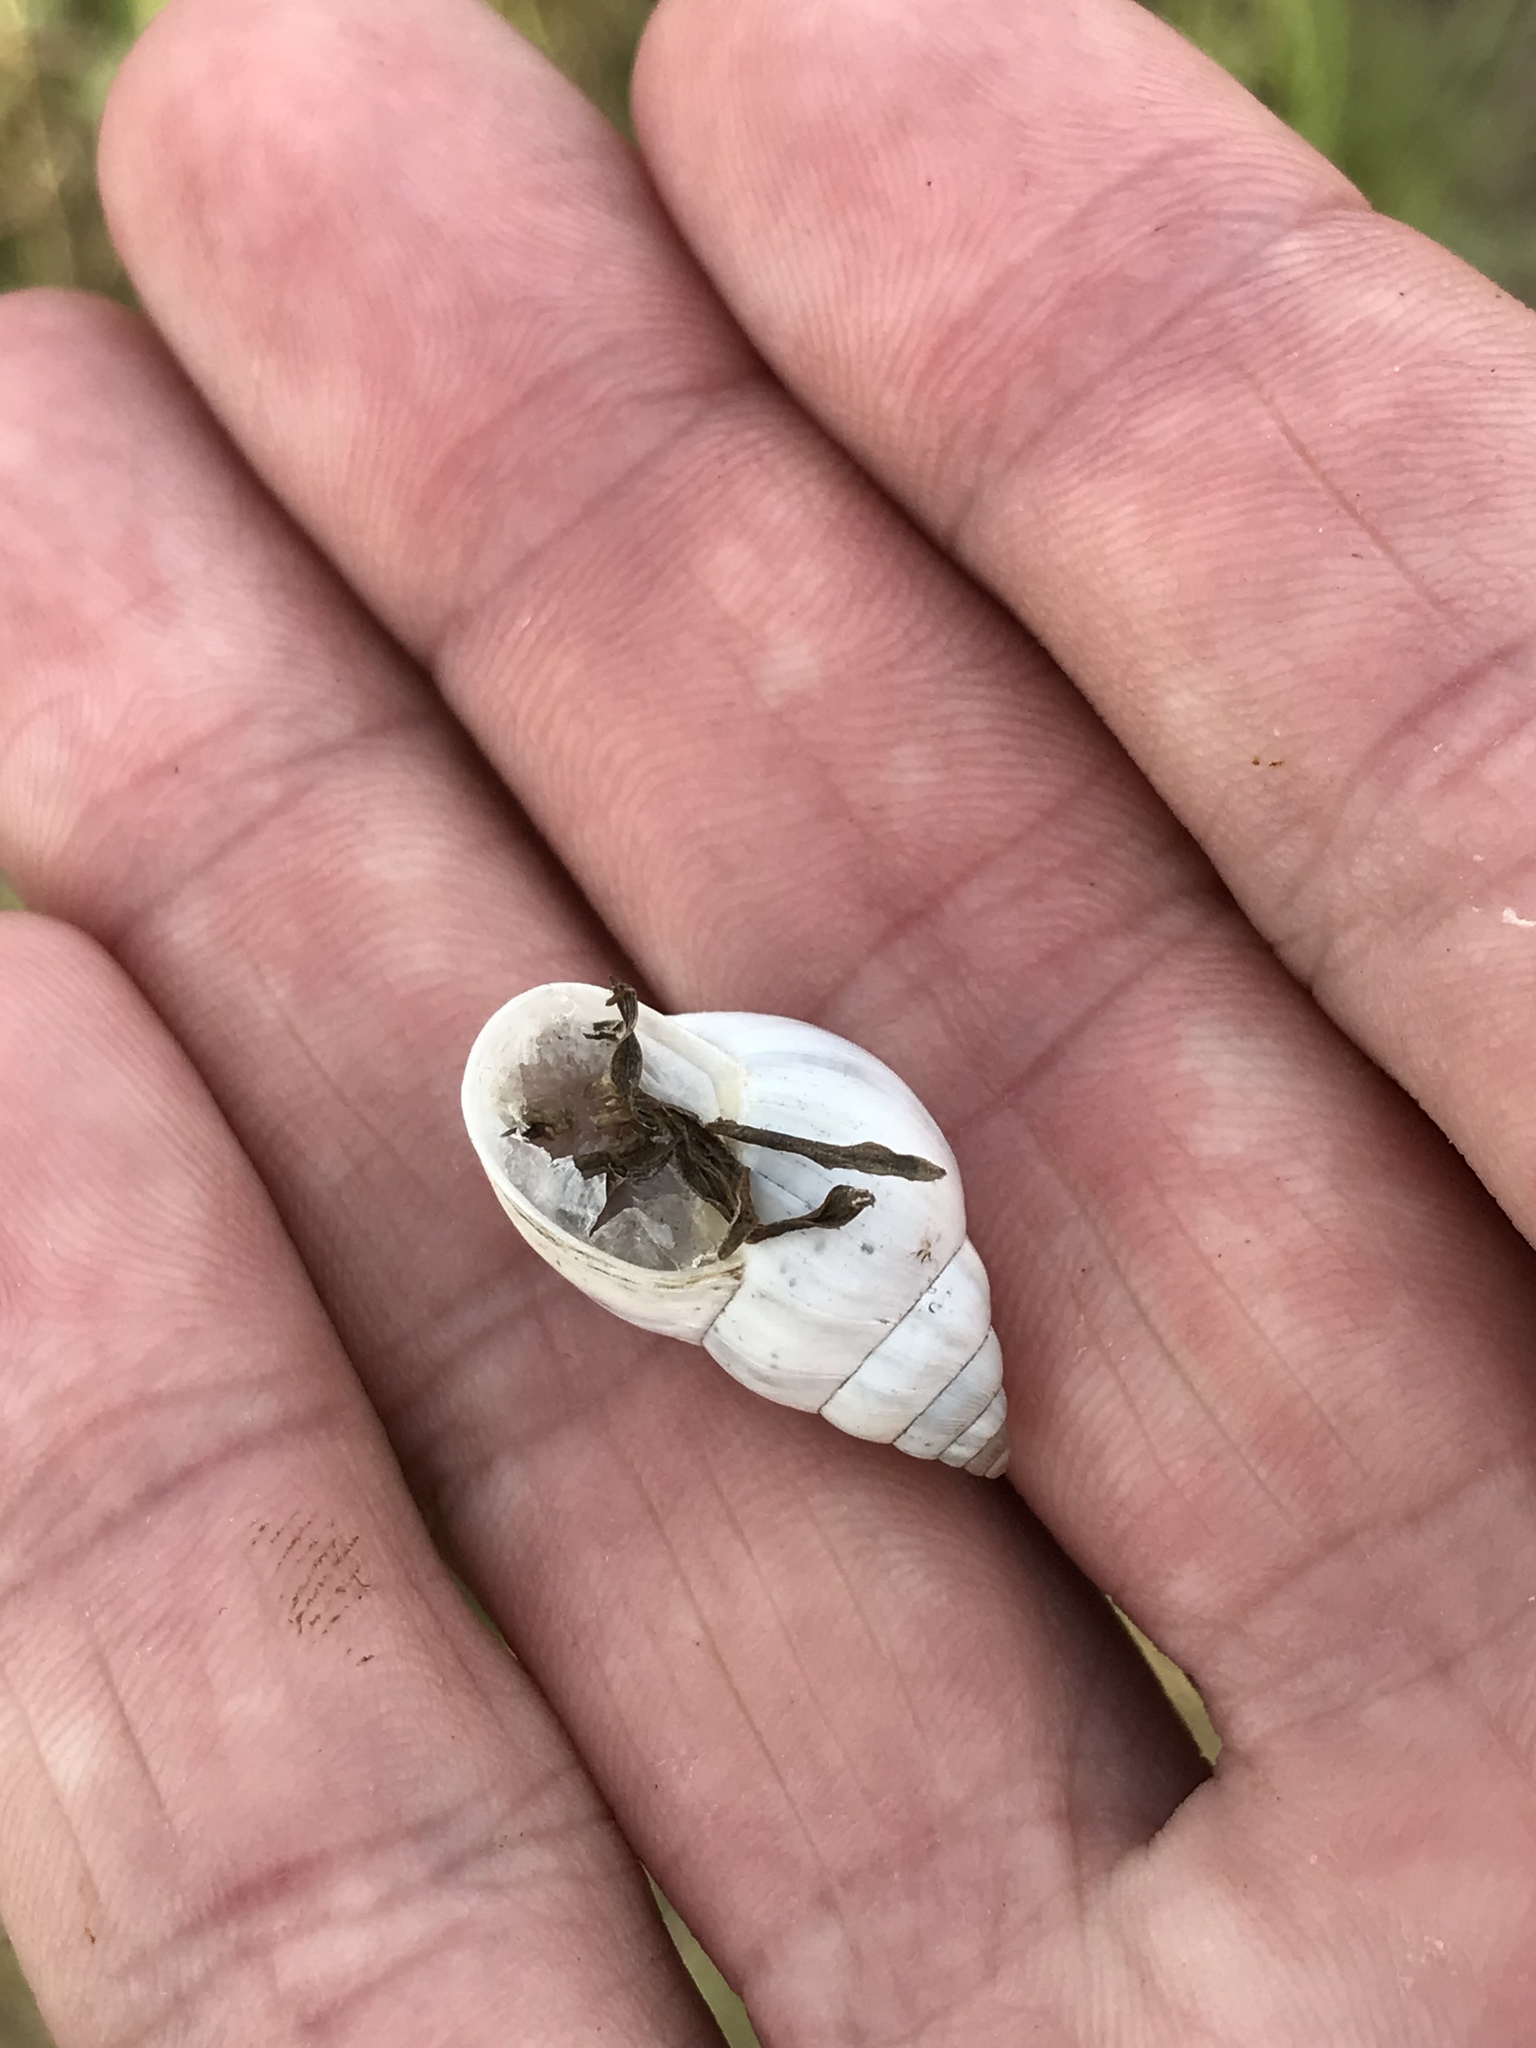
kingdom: Animalia
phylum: Mollusca
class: Gastropoda
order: Stylommatophora
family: Bulimulidae
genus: Rabdotus
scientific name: Rabdotus mooreanus
